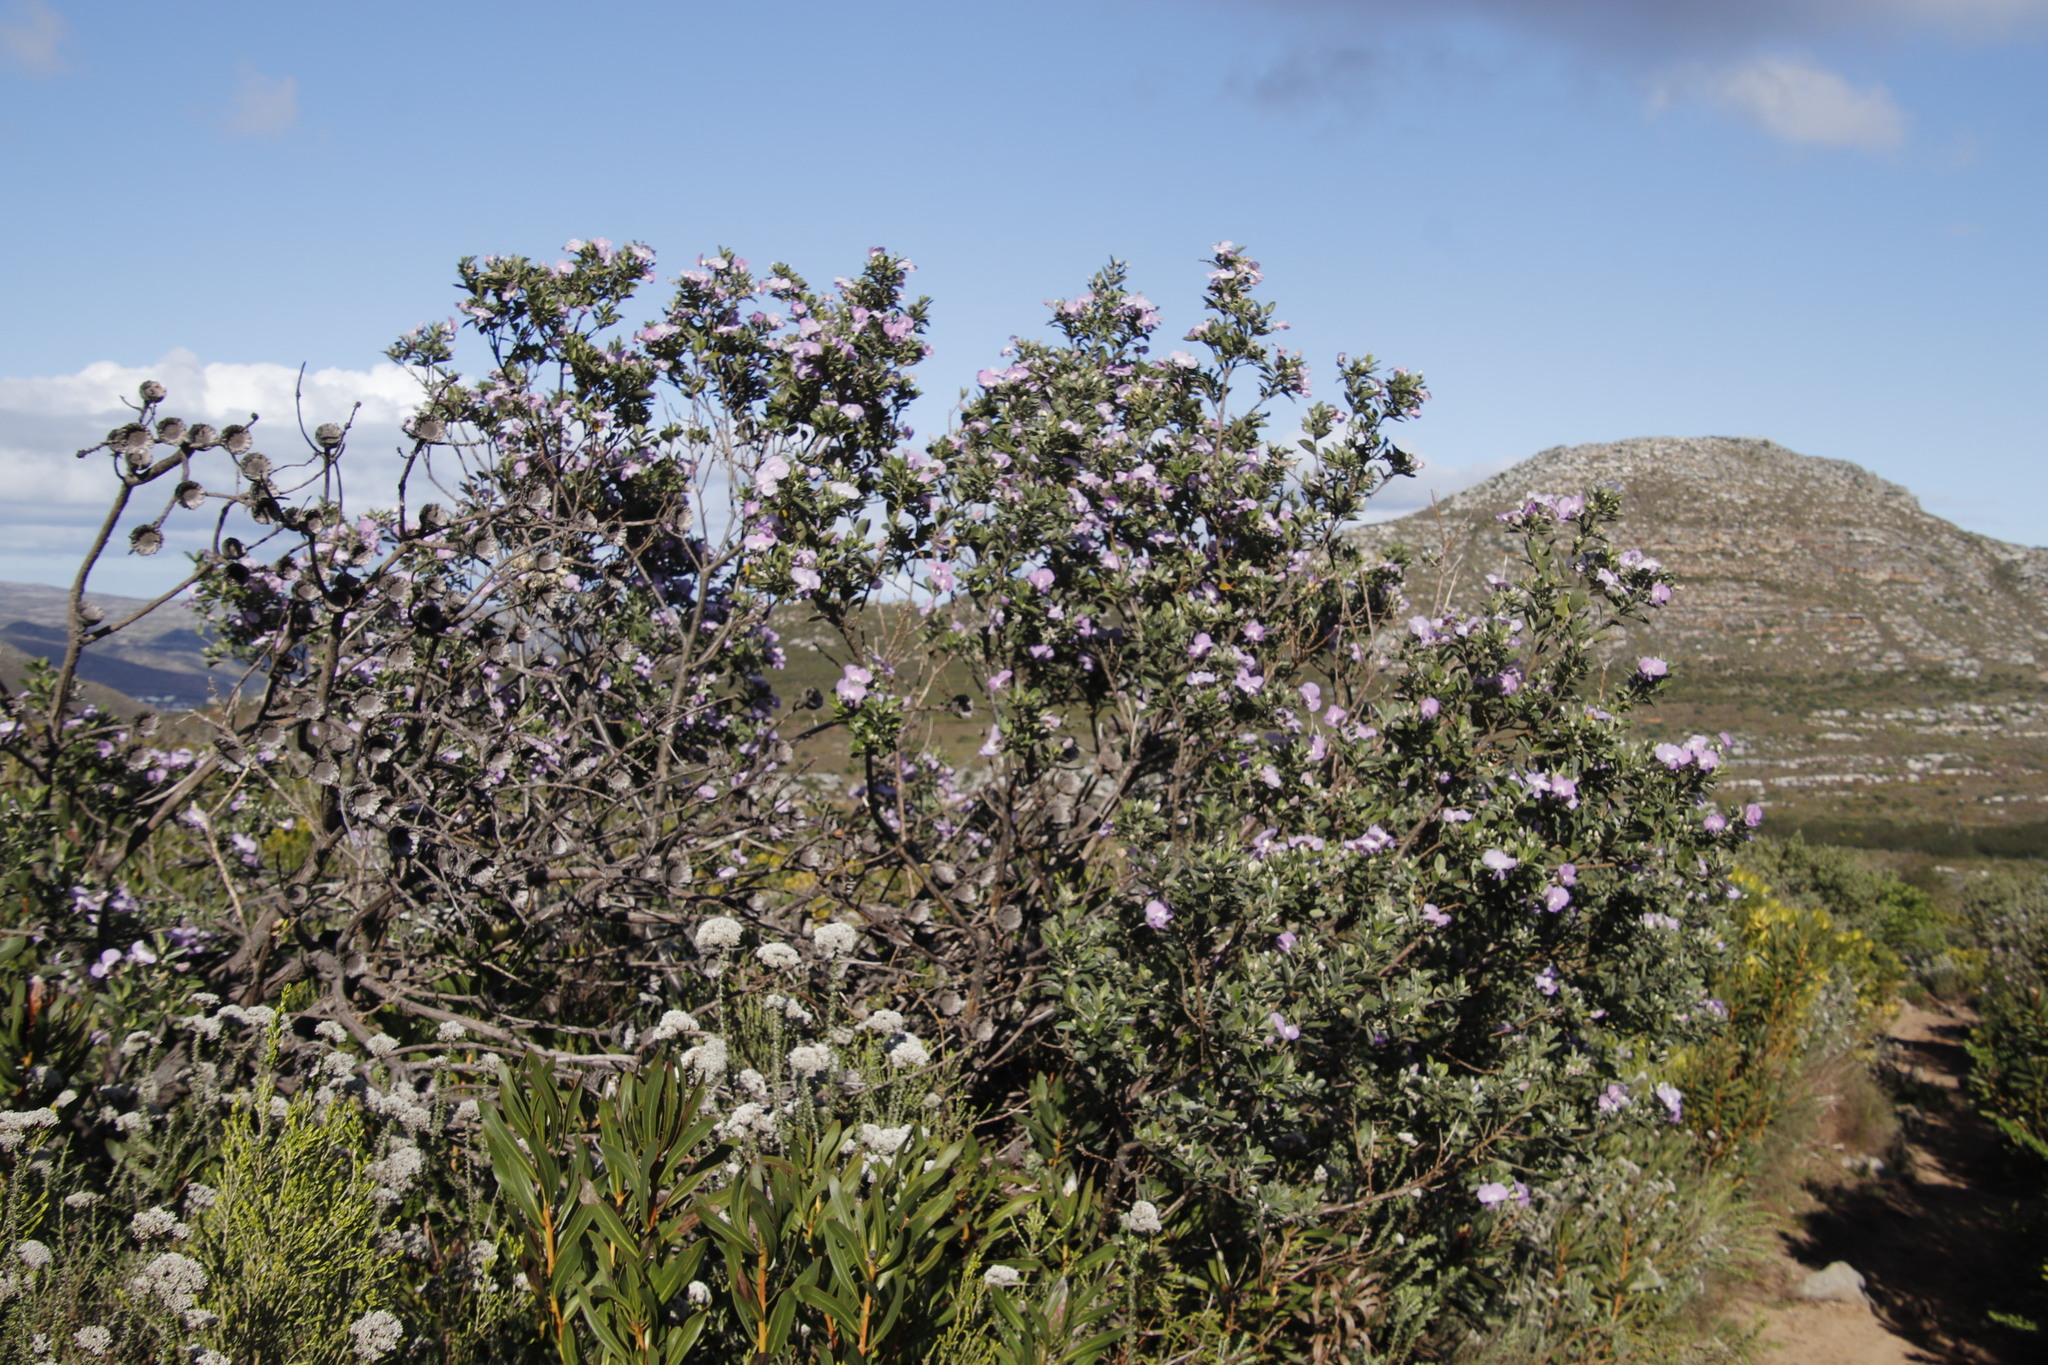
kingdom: Plantae
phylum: Tracheophyta
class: Magnoliopsida
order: Fabales
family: Fabaceae
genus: Podalyria
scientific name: Podalyria calyptrata
